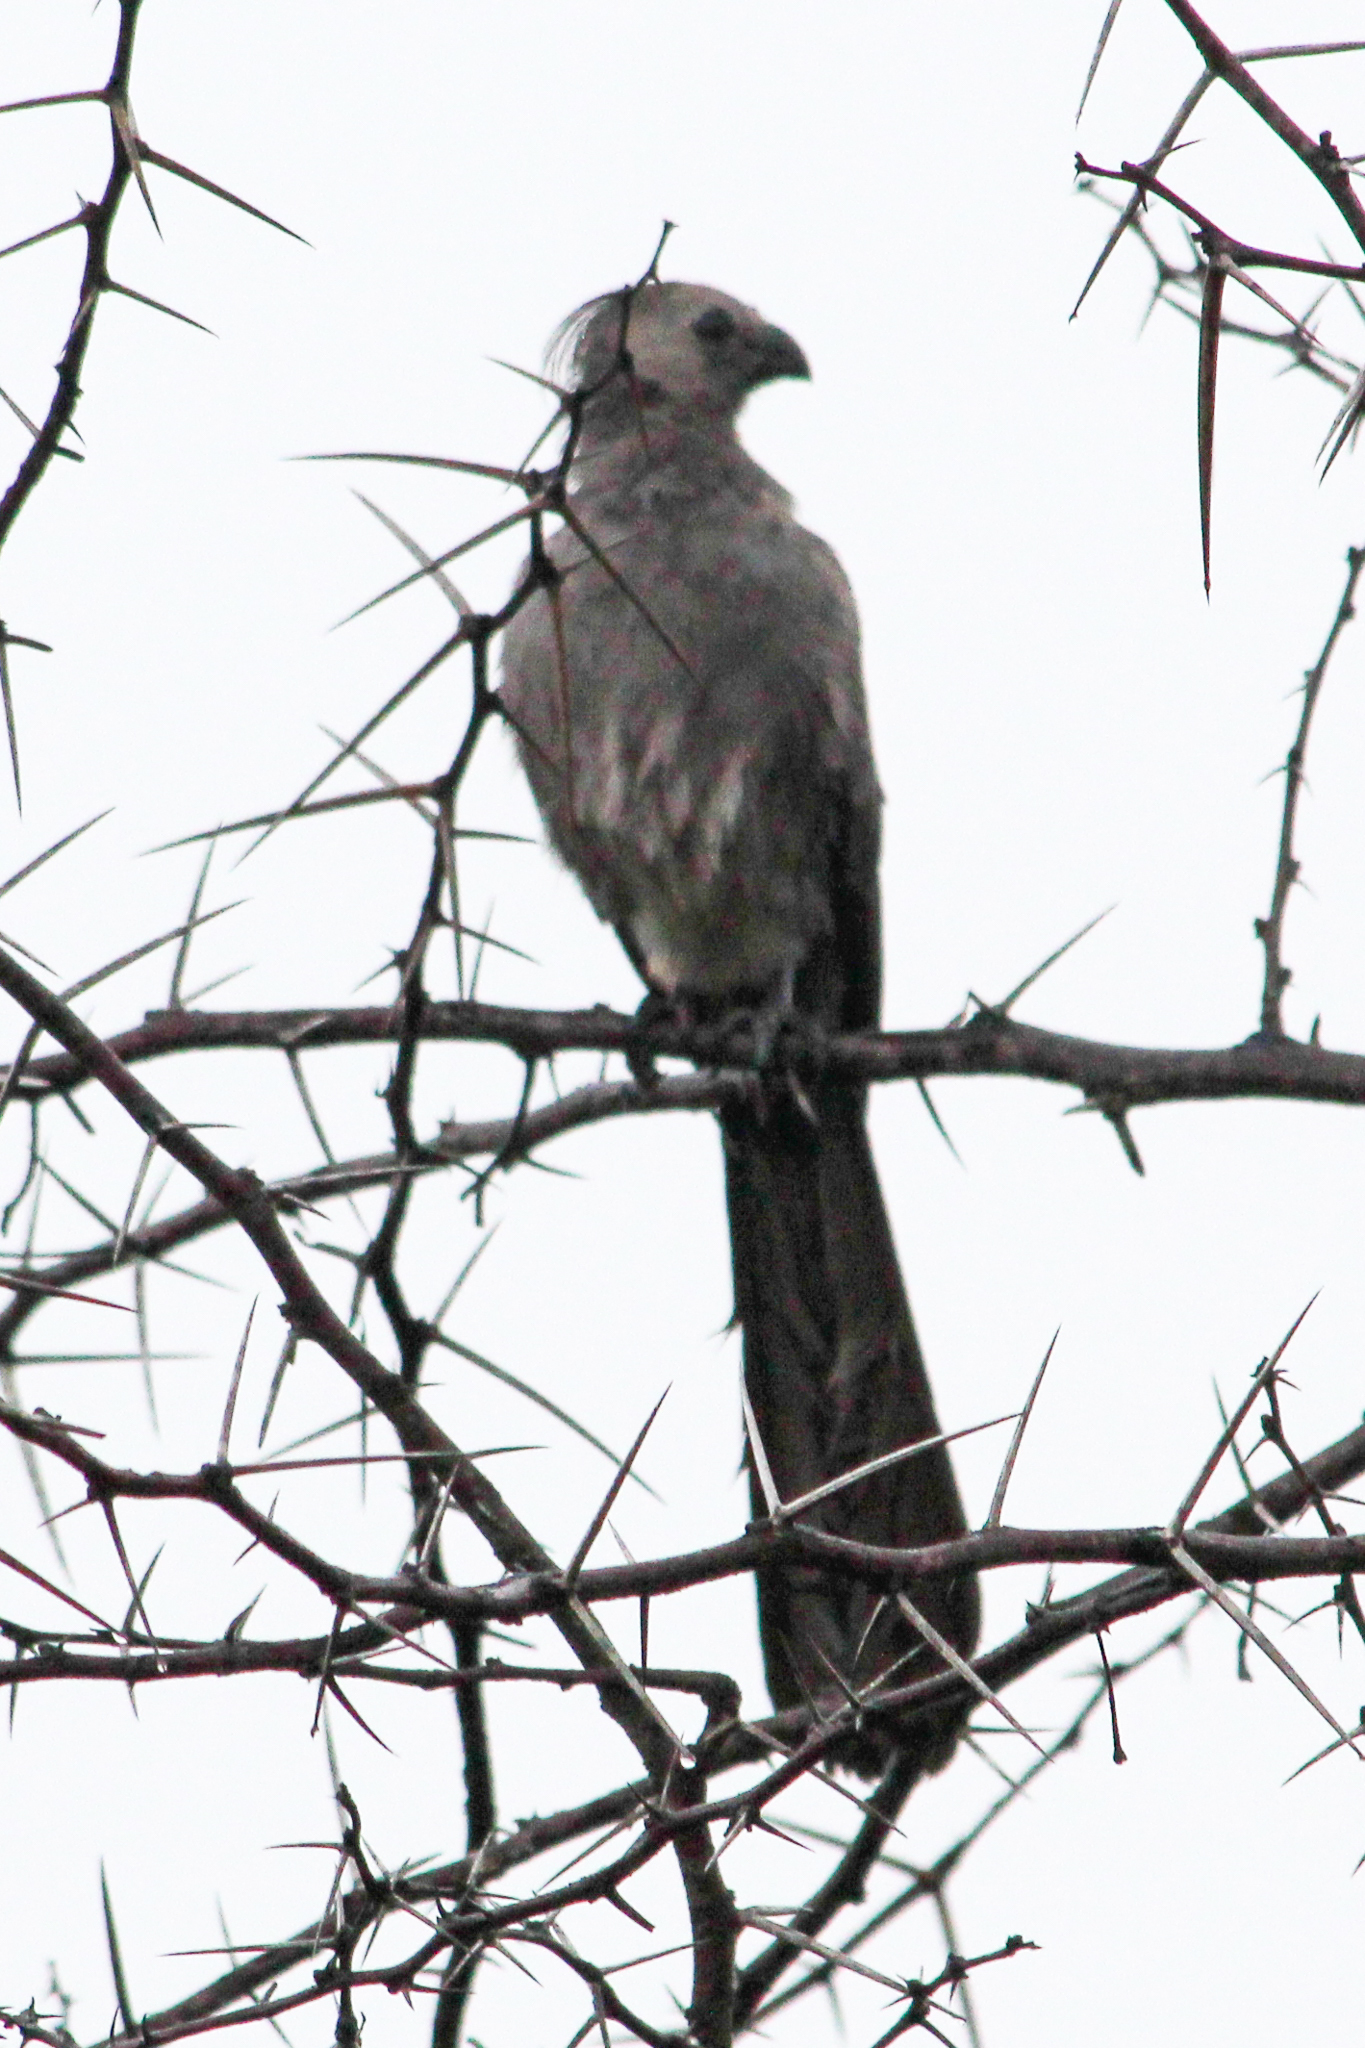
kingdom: Animalia
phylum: Chordata
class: Aves
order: Musophagiformes
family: Musophagidae
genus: Corythaixoides
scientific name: Corythaixoides concolor
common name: Grey go-away-bird
